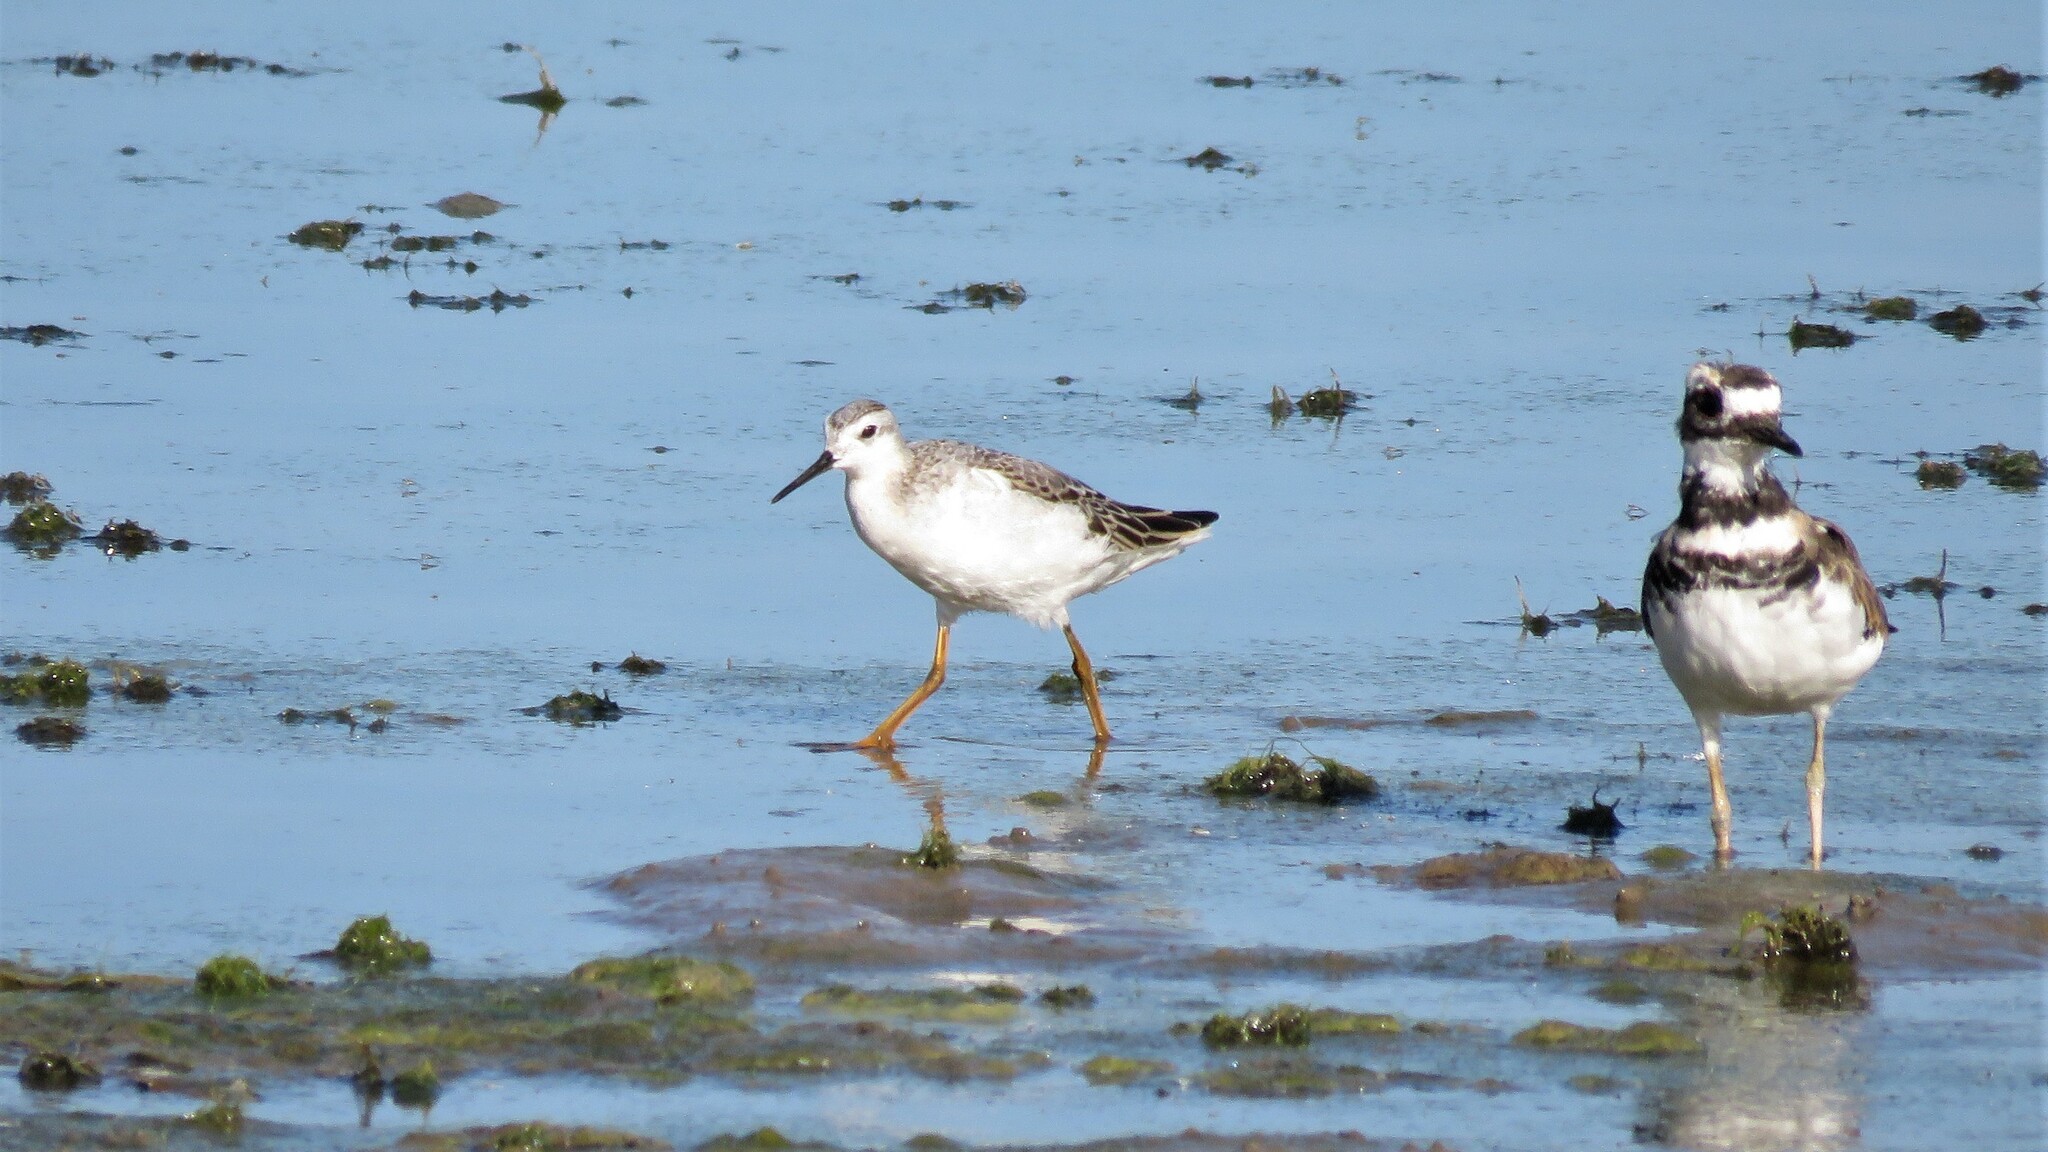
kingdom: Animalia
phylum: Chordata
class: Aves
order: Charadriiformes
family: Scolopacidae
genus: Phalaropus
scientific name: Phalaropus tricolor
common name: Wilson's phalarope
